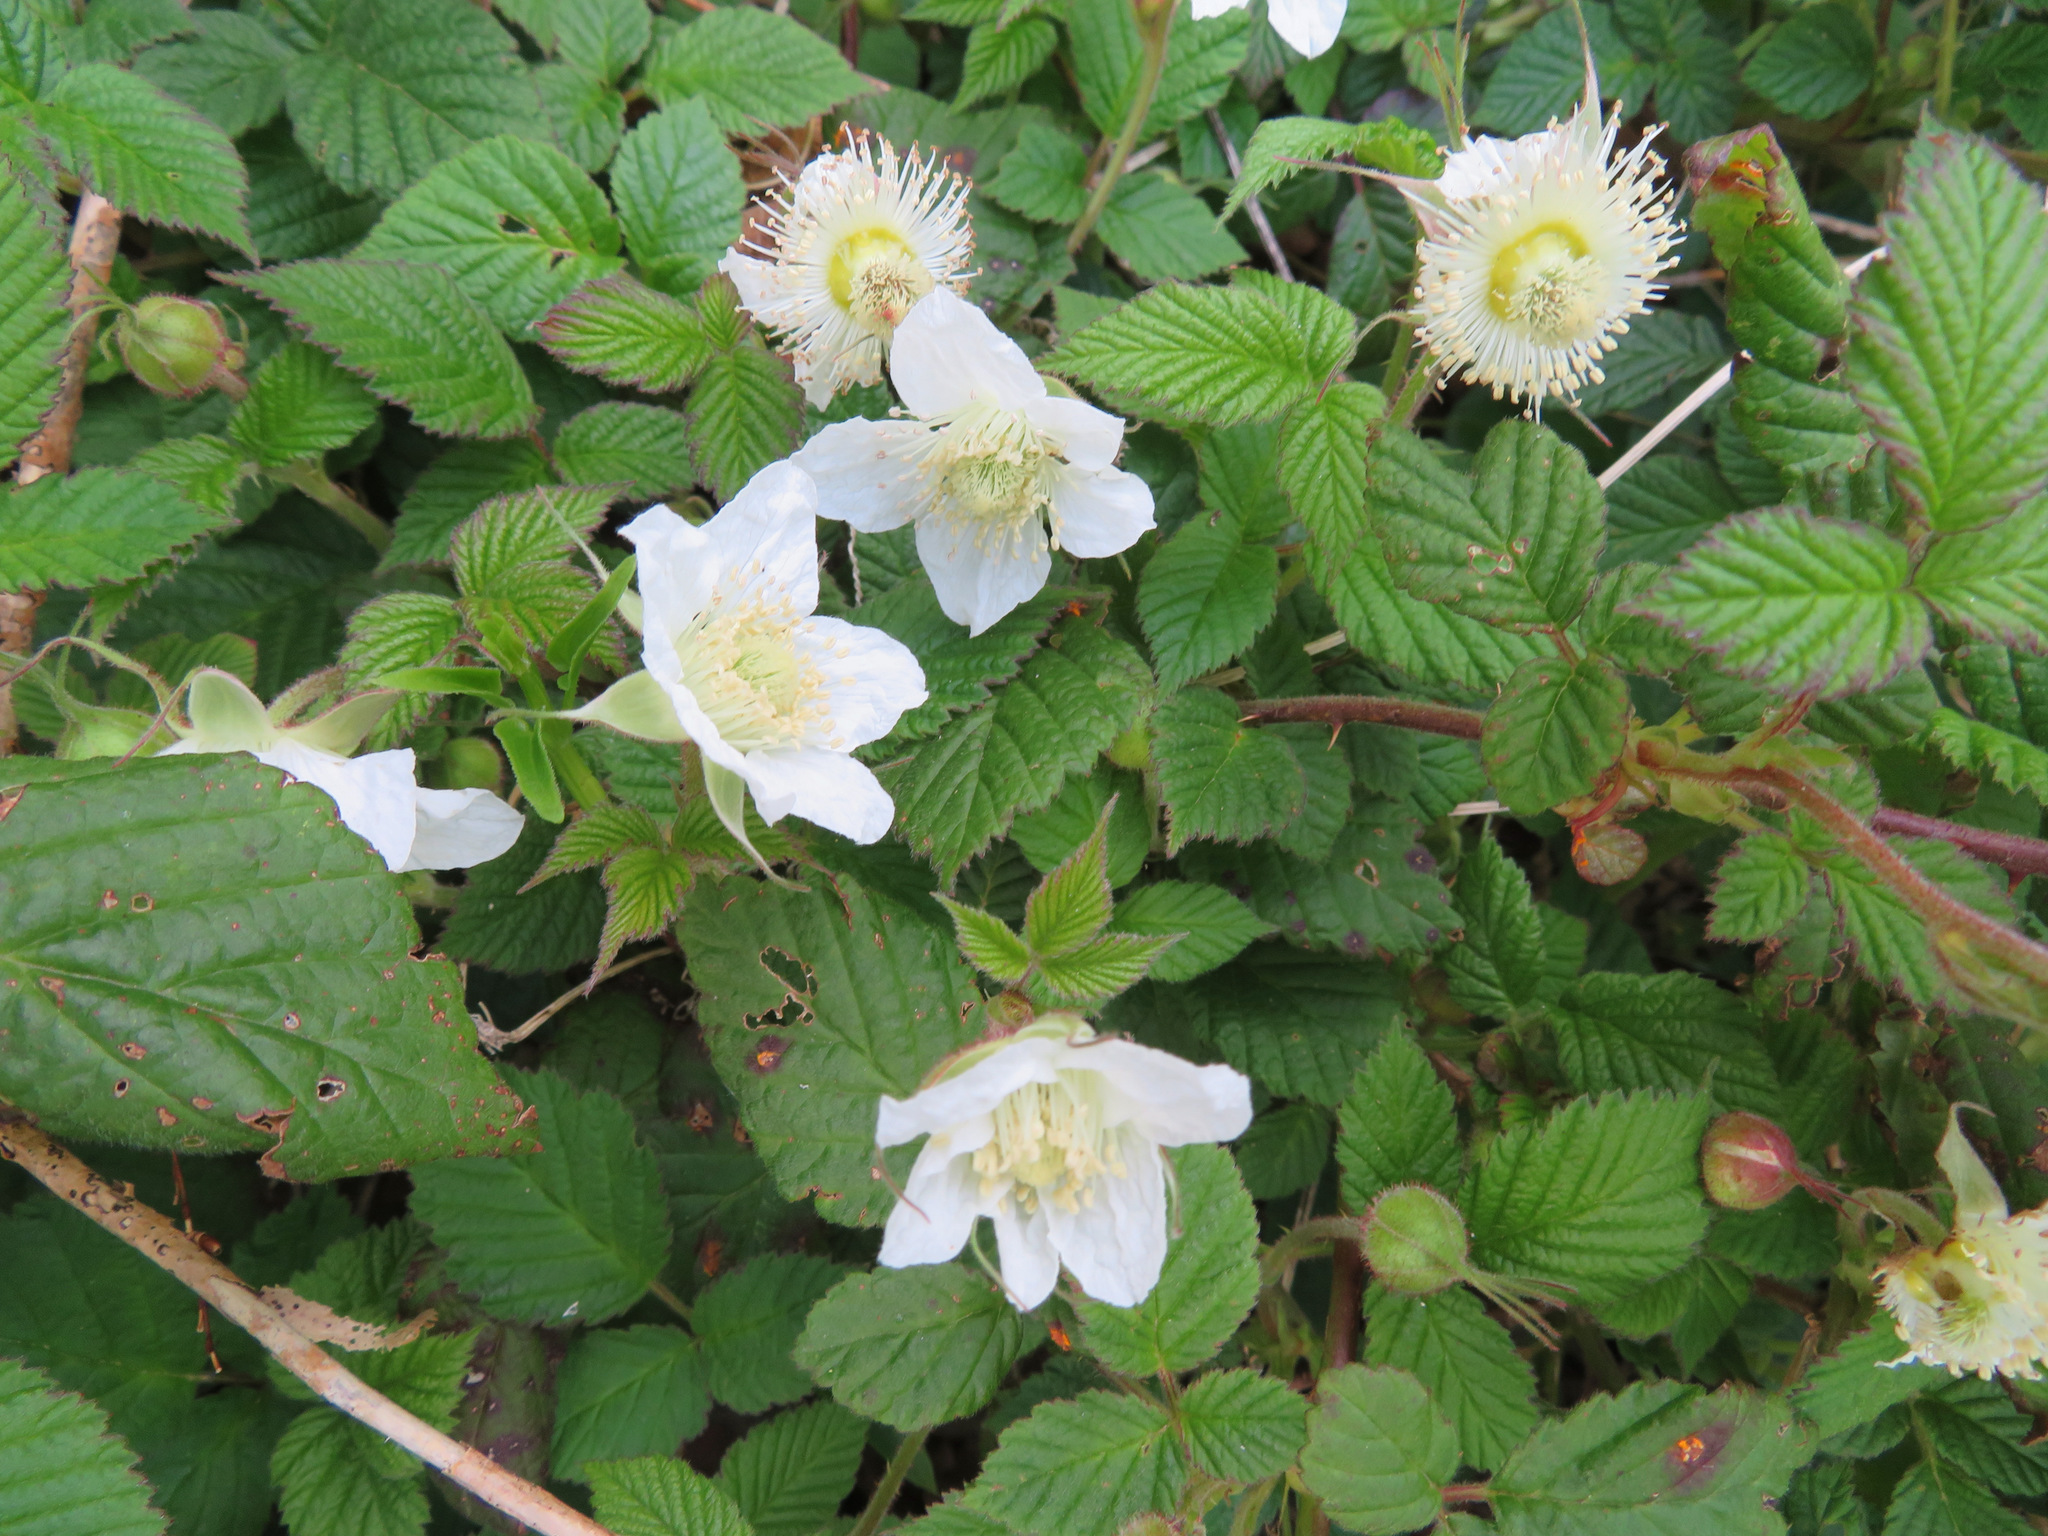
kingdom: Plantae
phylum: Tracheophyta
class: Magnoliopsida
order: Rosales
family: Rosaceae
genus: Rubus
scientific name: Rubus hirsutus
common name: Hirsute raspberry
